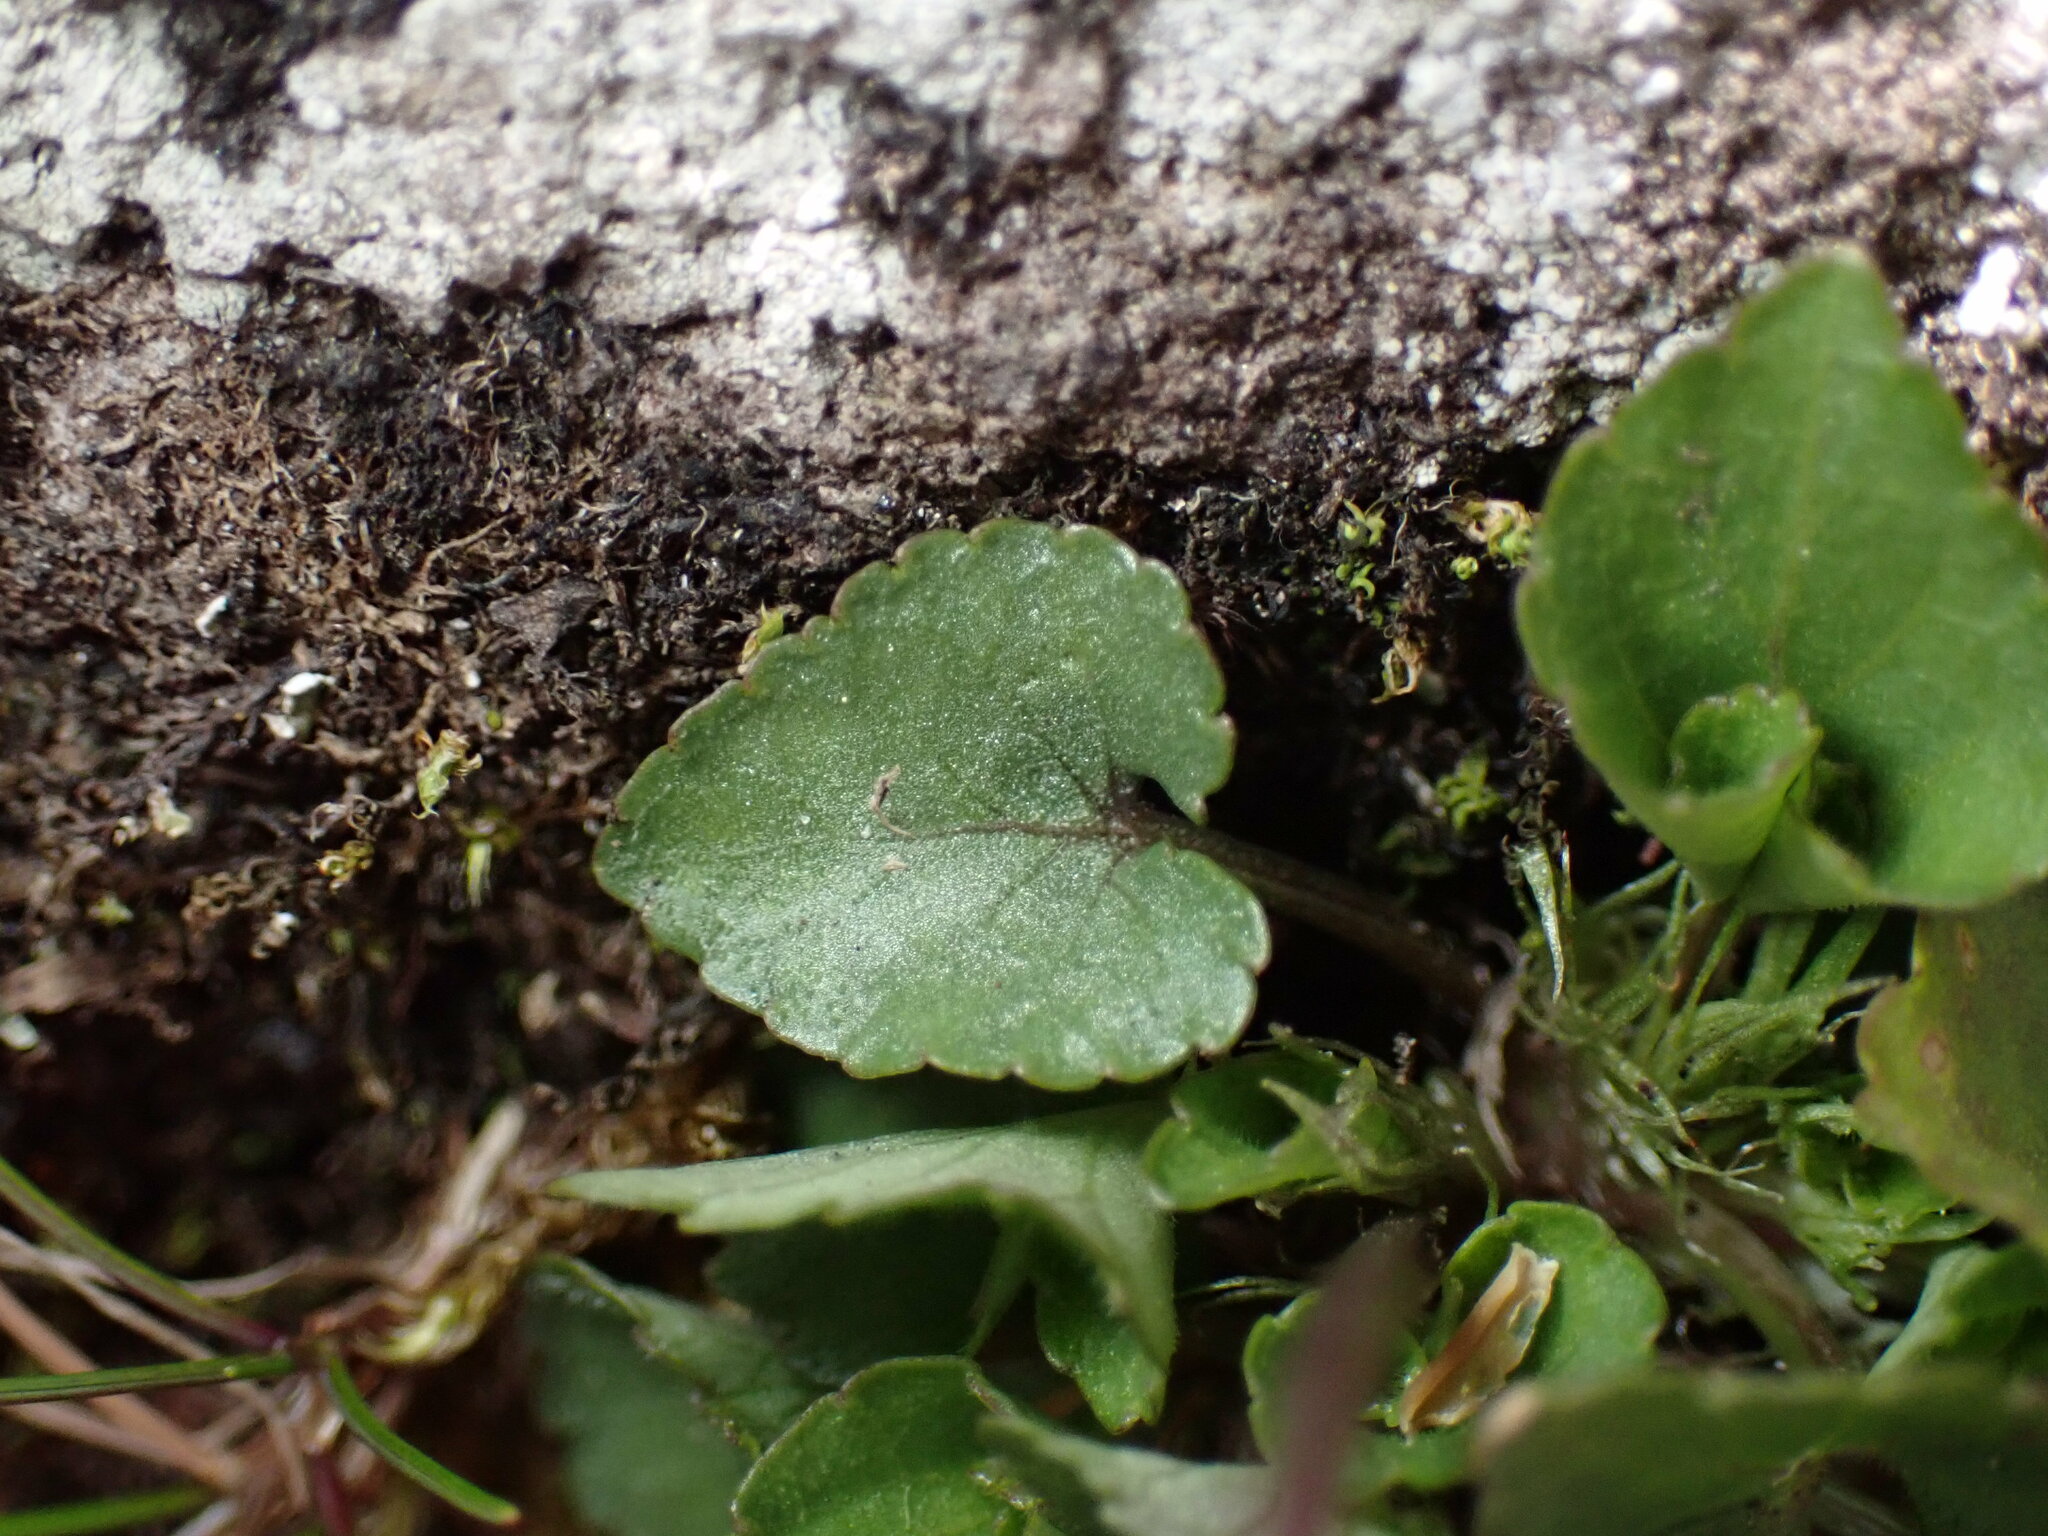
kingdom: Plantae
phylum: Tracheophyta
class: Magnoliopsida
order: Malpighiales
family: Violaceae
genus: Viola
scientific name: Viola grypoceras
